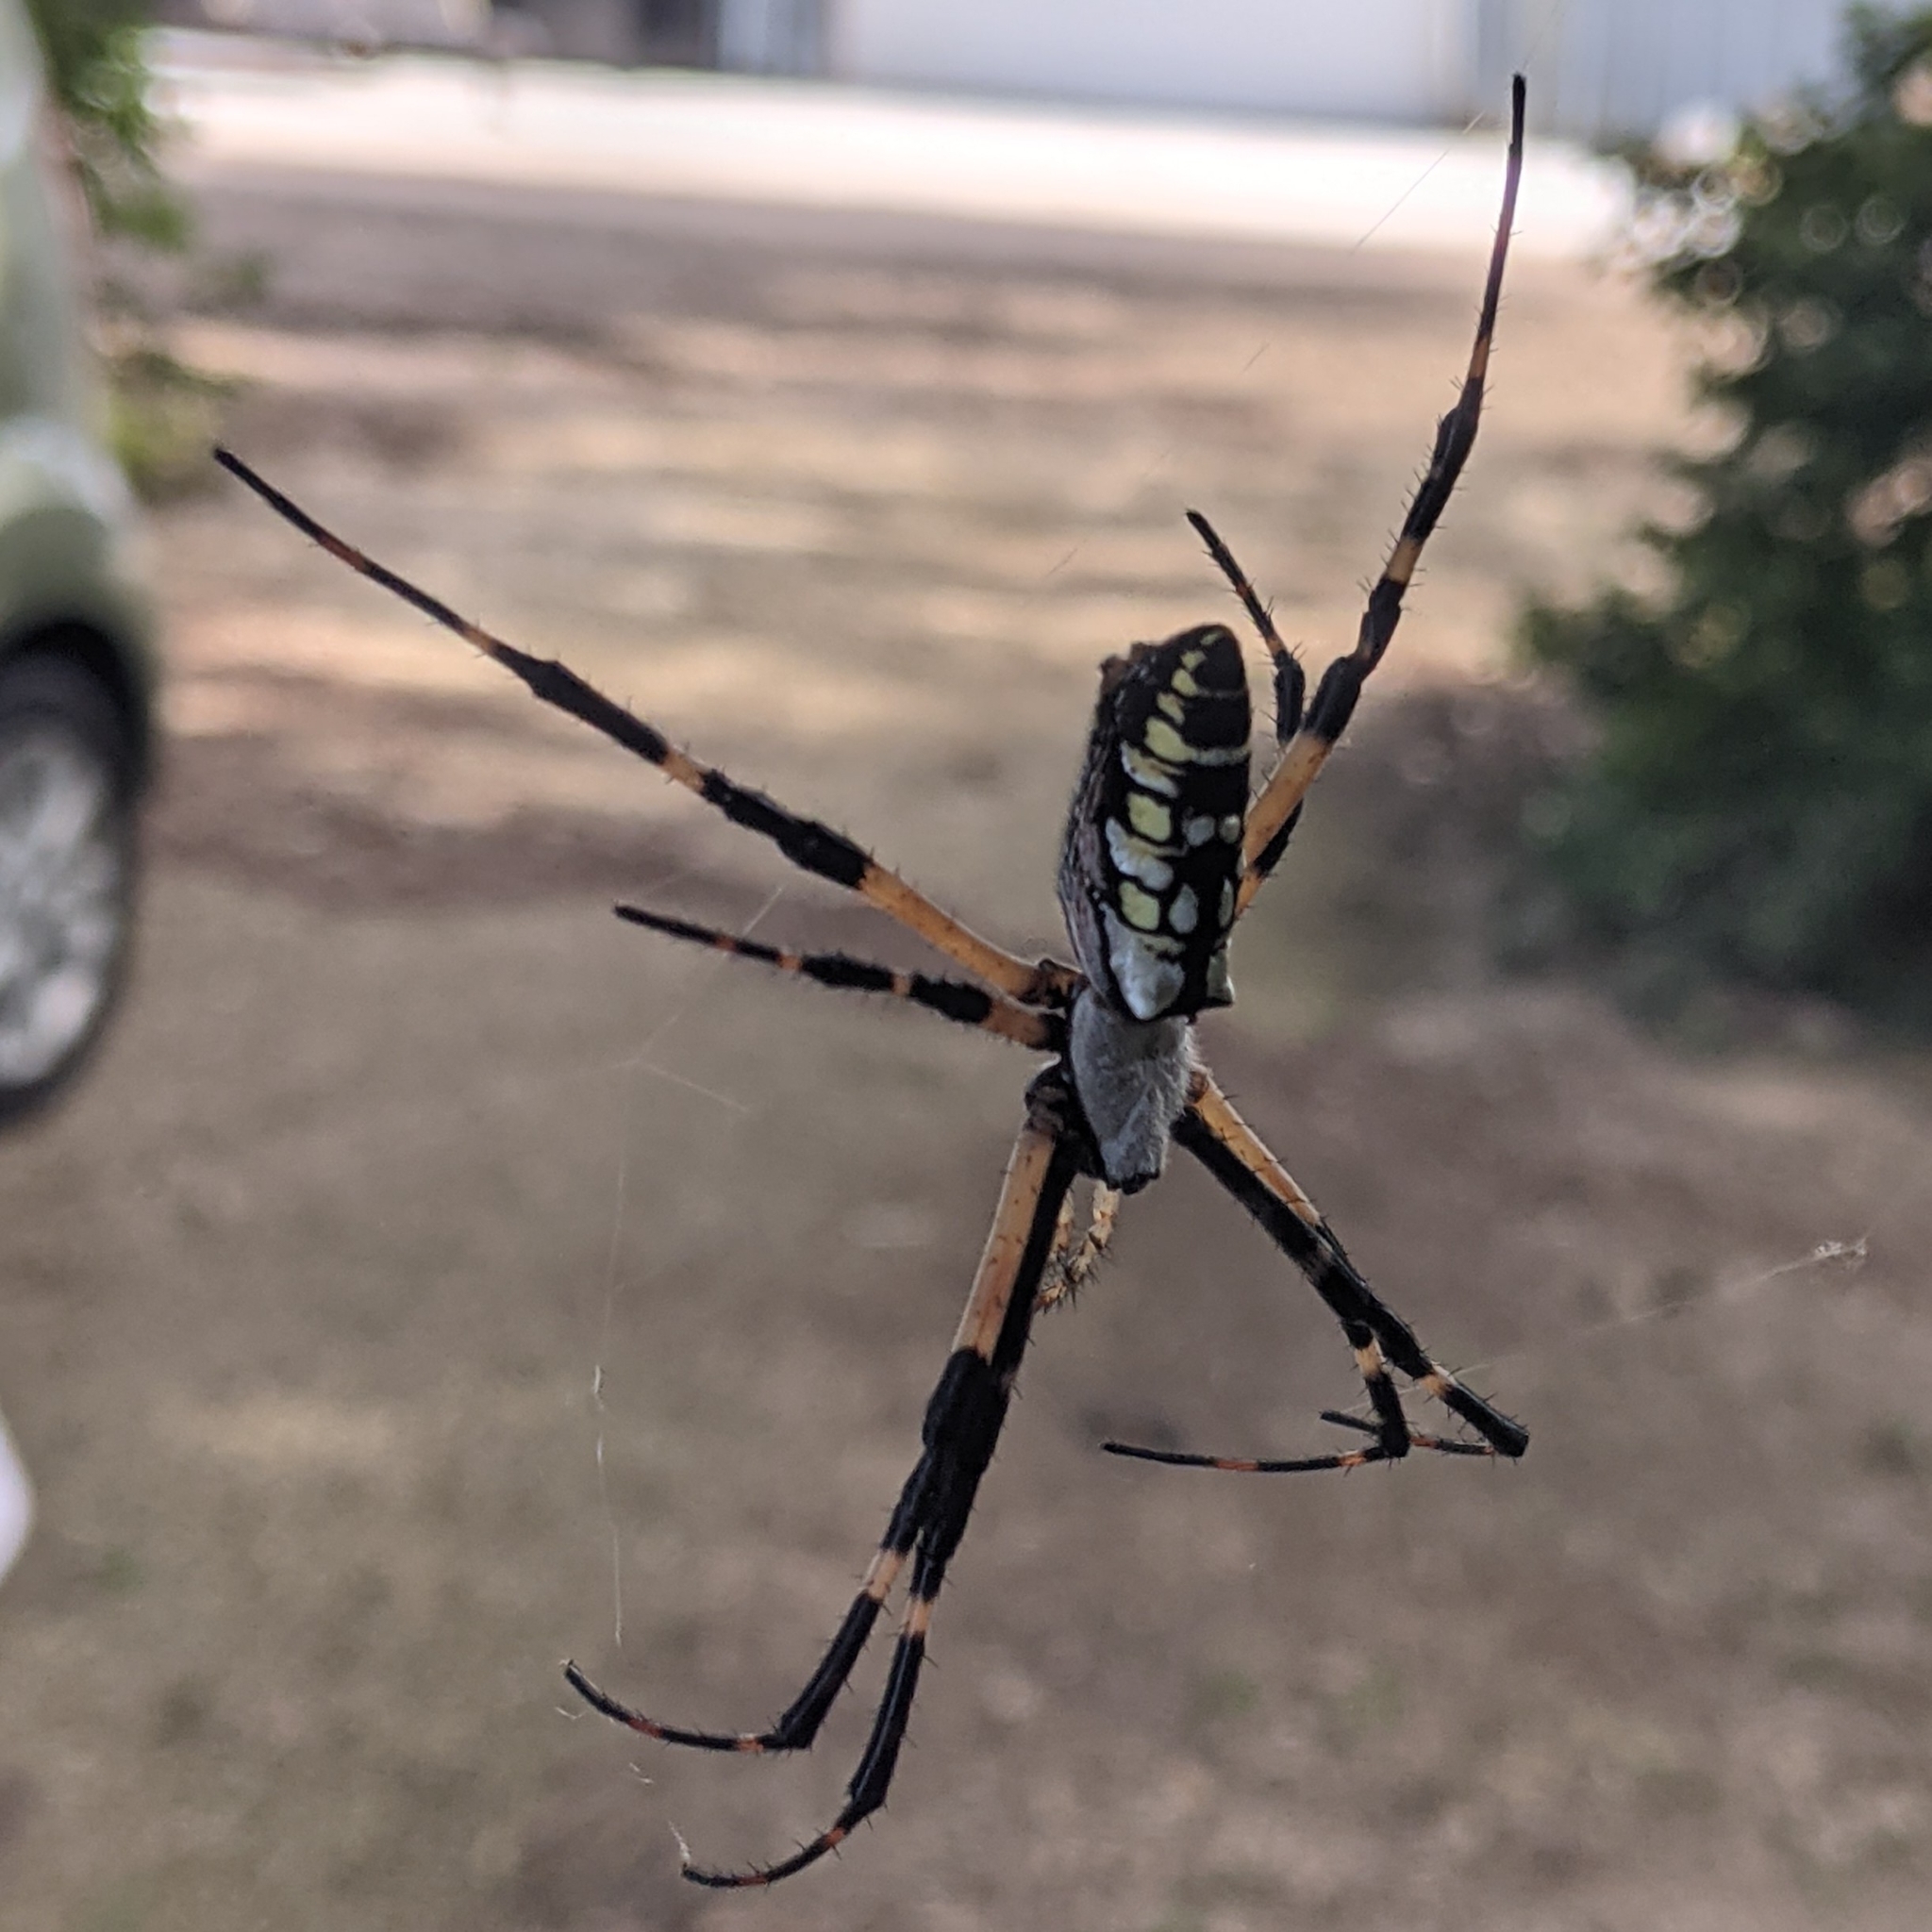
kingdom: Animalia
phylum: Arthropoda
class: Arachnida
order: Araneae
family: Araneidae
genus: Argiope
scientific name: Argiope aurantia
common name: Orb weavers
